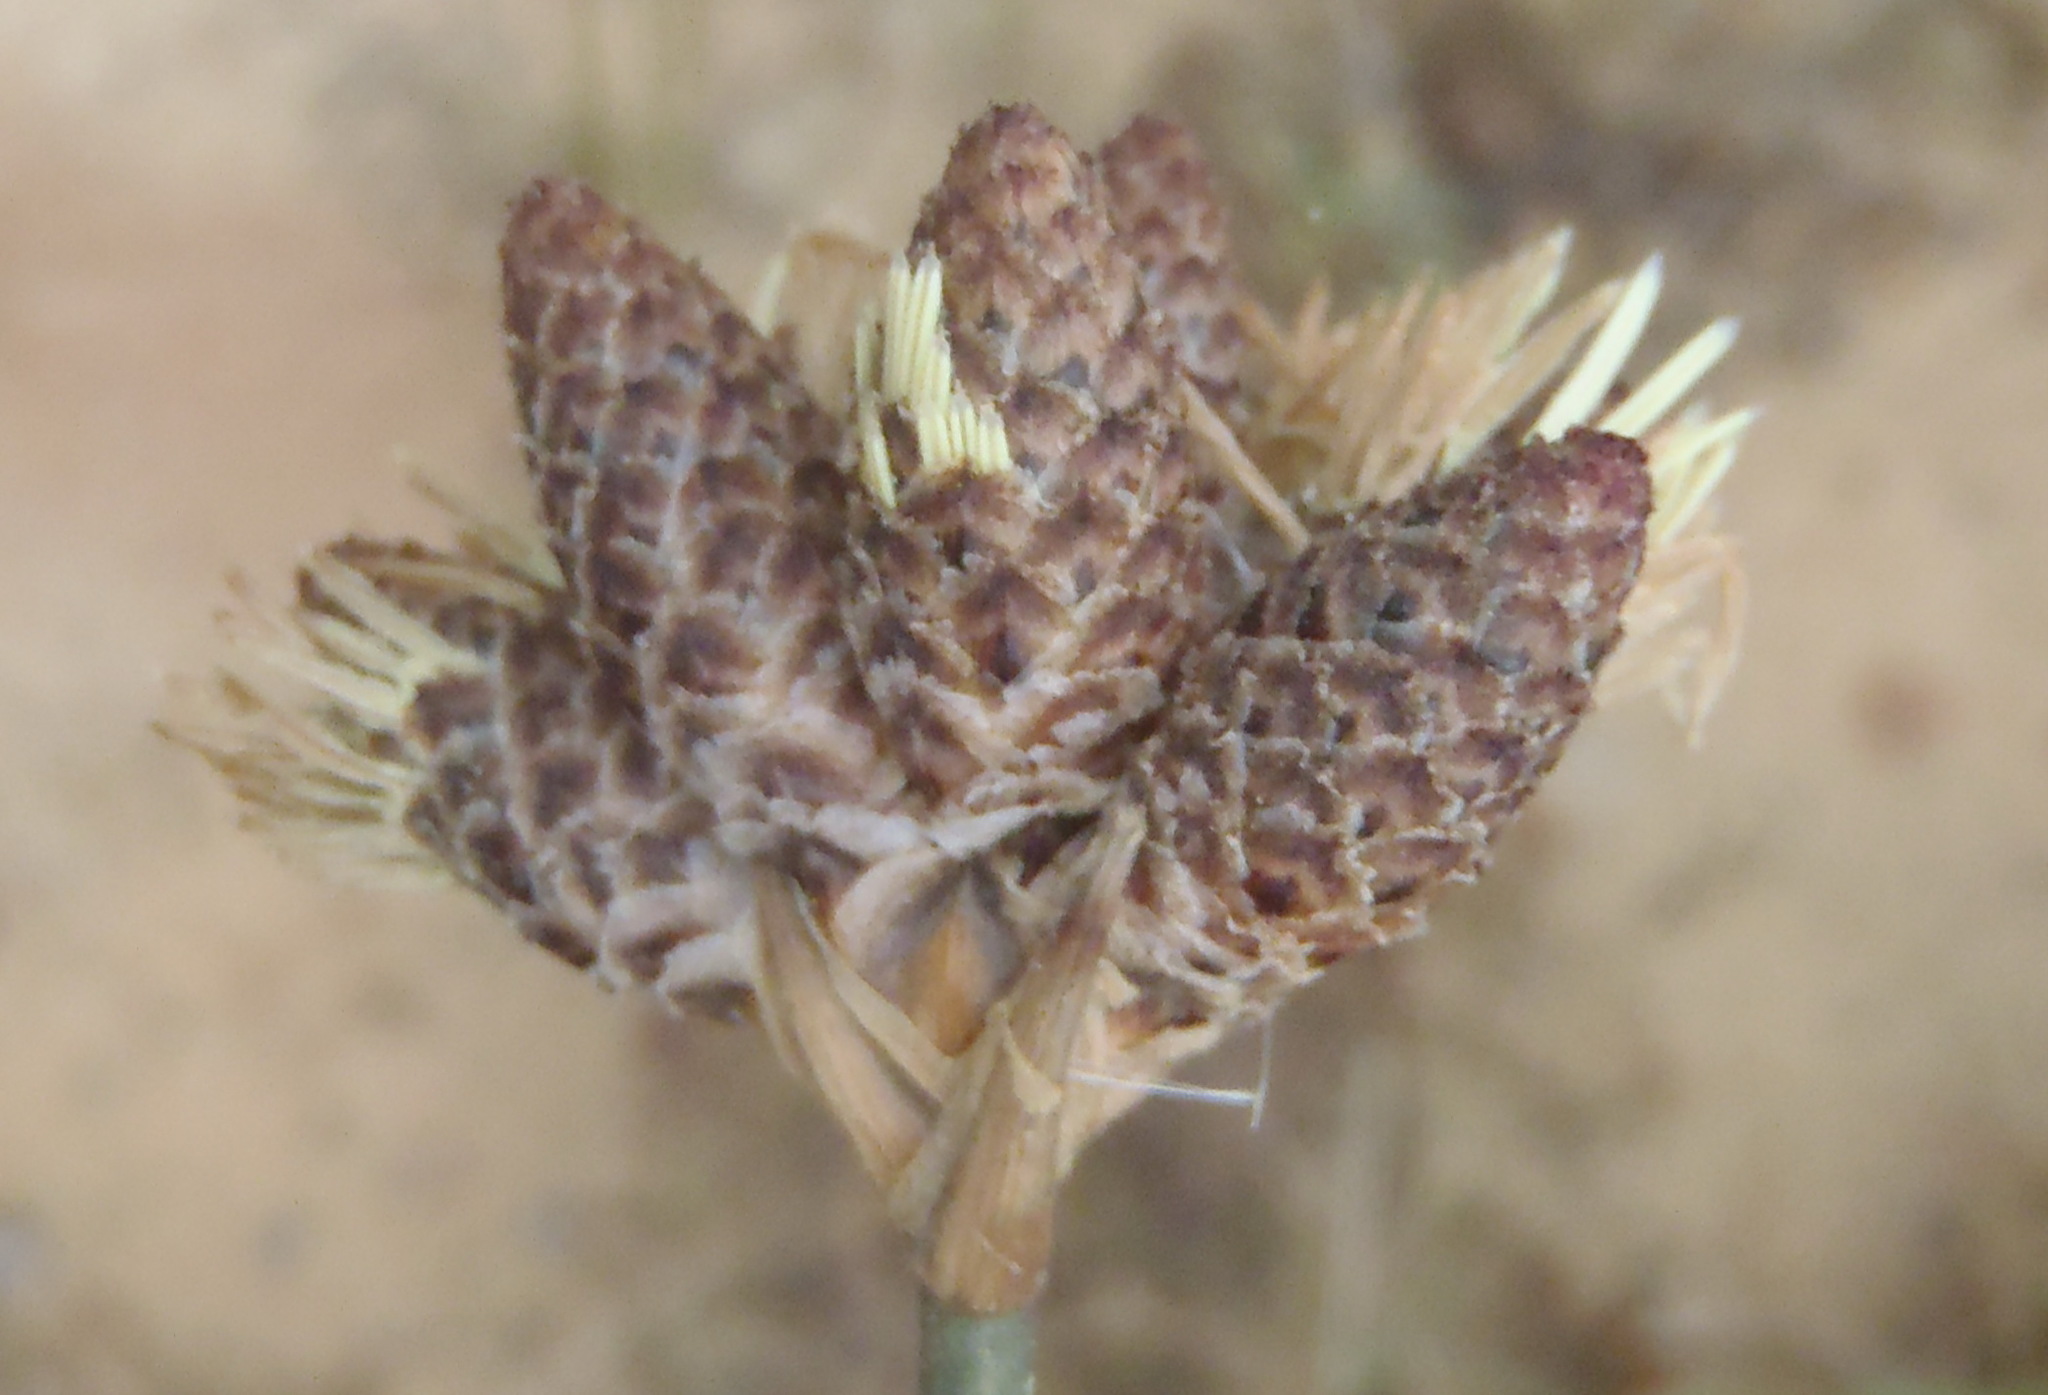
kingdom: Plantae
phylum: Tracheophyta
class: Liliopsida
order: Poales
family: Cyperaceae
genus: Hellmuthia
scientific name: Hellmuthia membranacea
